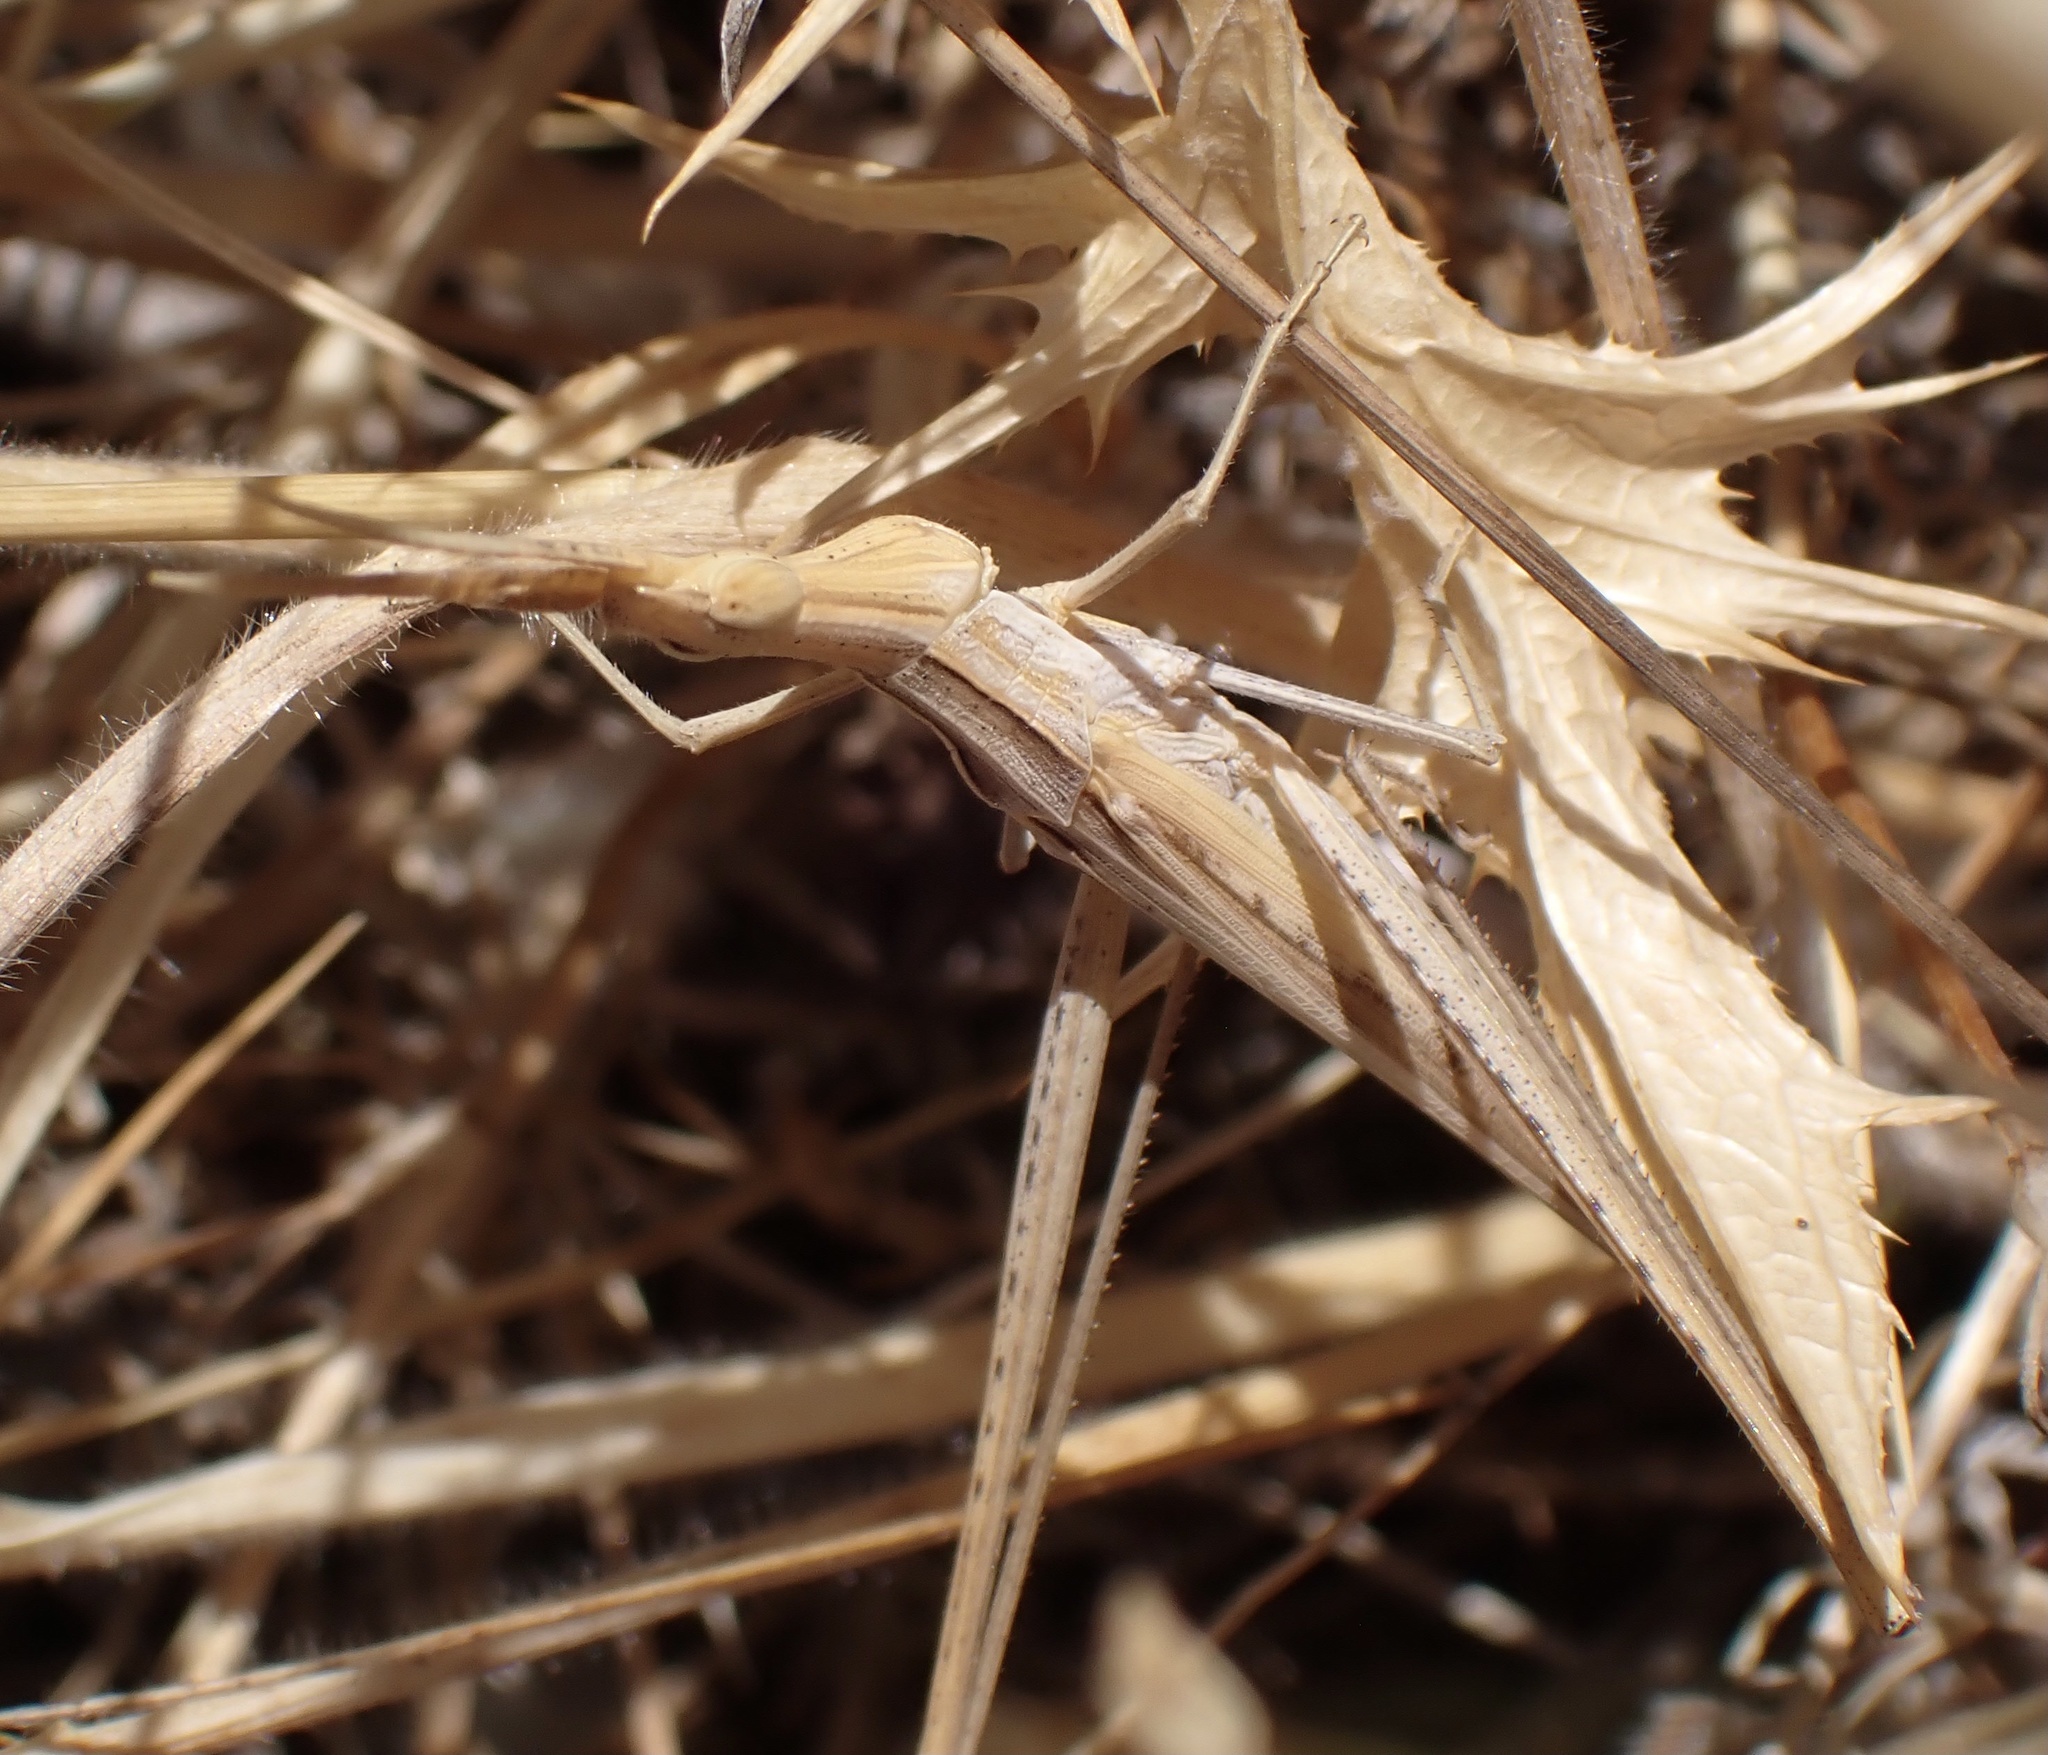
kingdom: Animalia
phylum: Arthropoda
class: Insecta
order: Orthoptera
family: Acrididae
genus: Acrida
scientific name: Acrida ungarica
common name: Common cone-headed grasshopper
